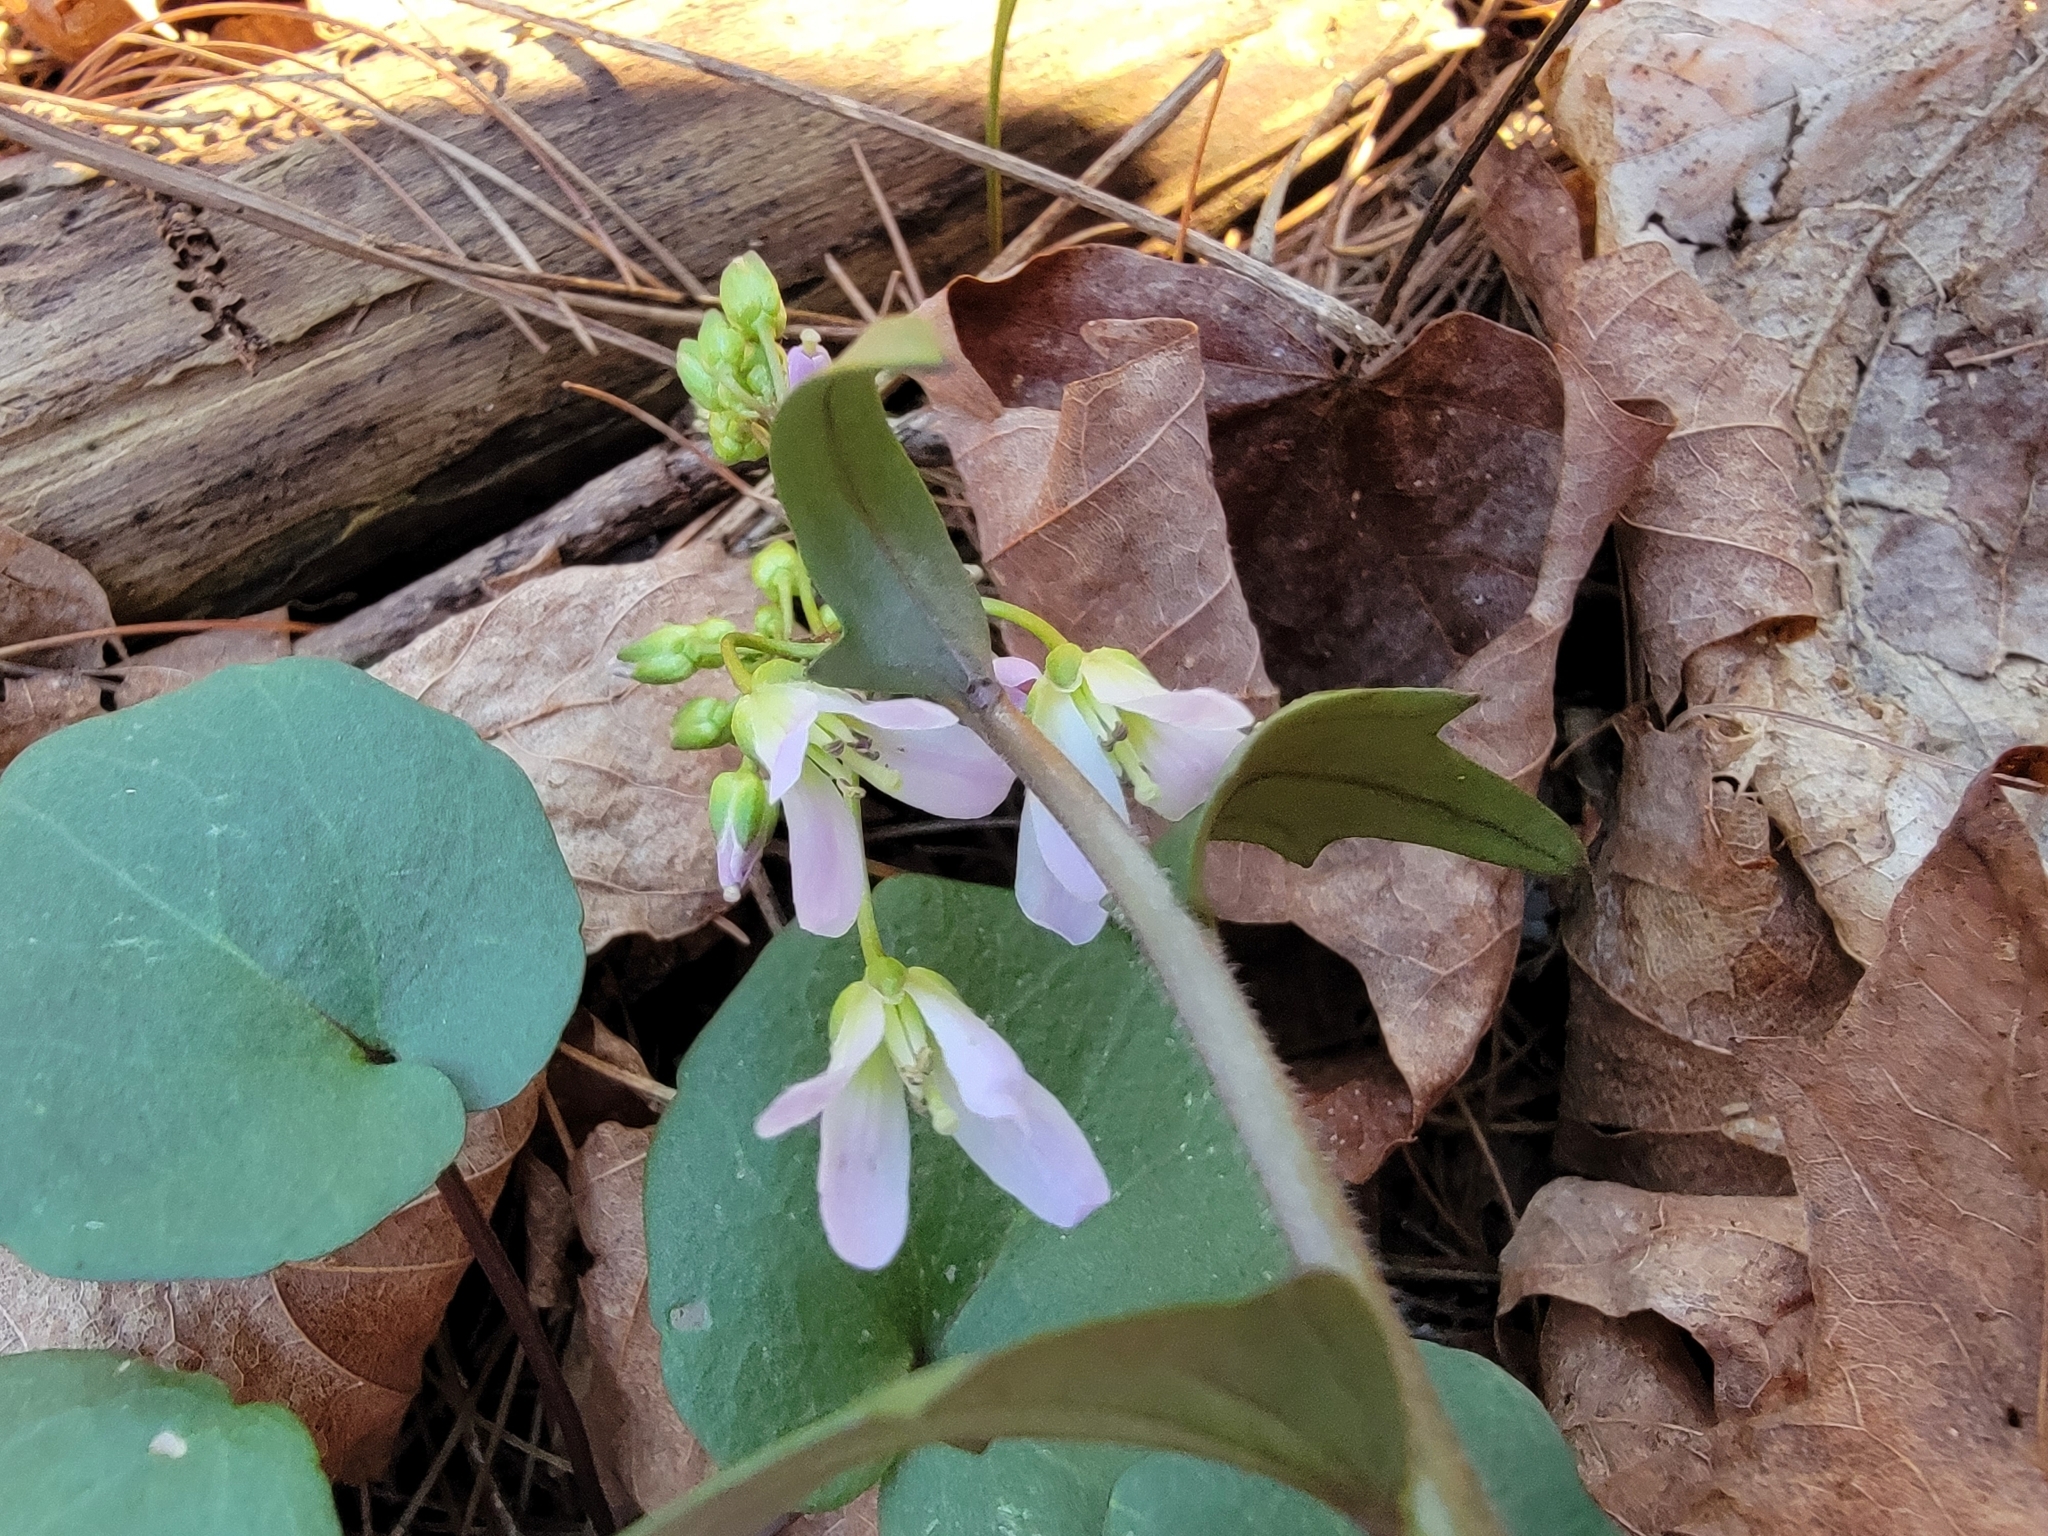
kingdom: Plantae
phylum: Tracheophyta
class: Magnoliopsida
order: Brassicales
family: Brassicaceae
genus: Cardamine
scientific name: Cardamine douglassii
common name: Purple cress
